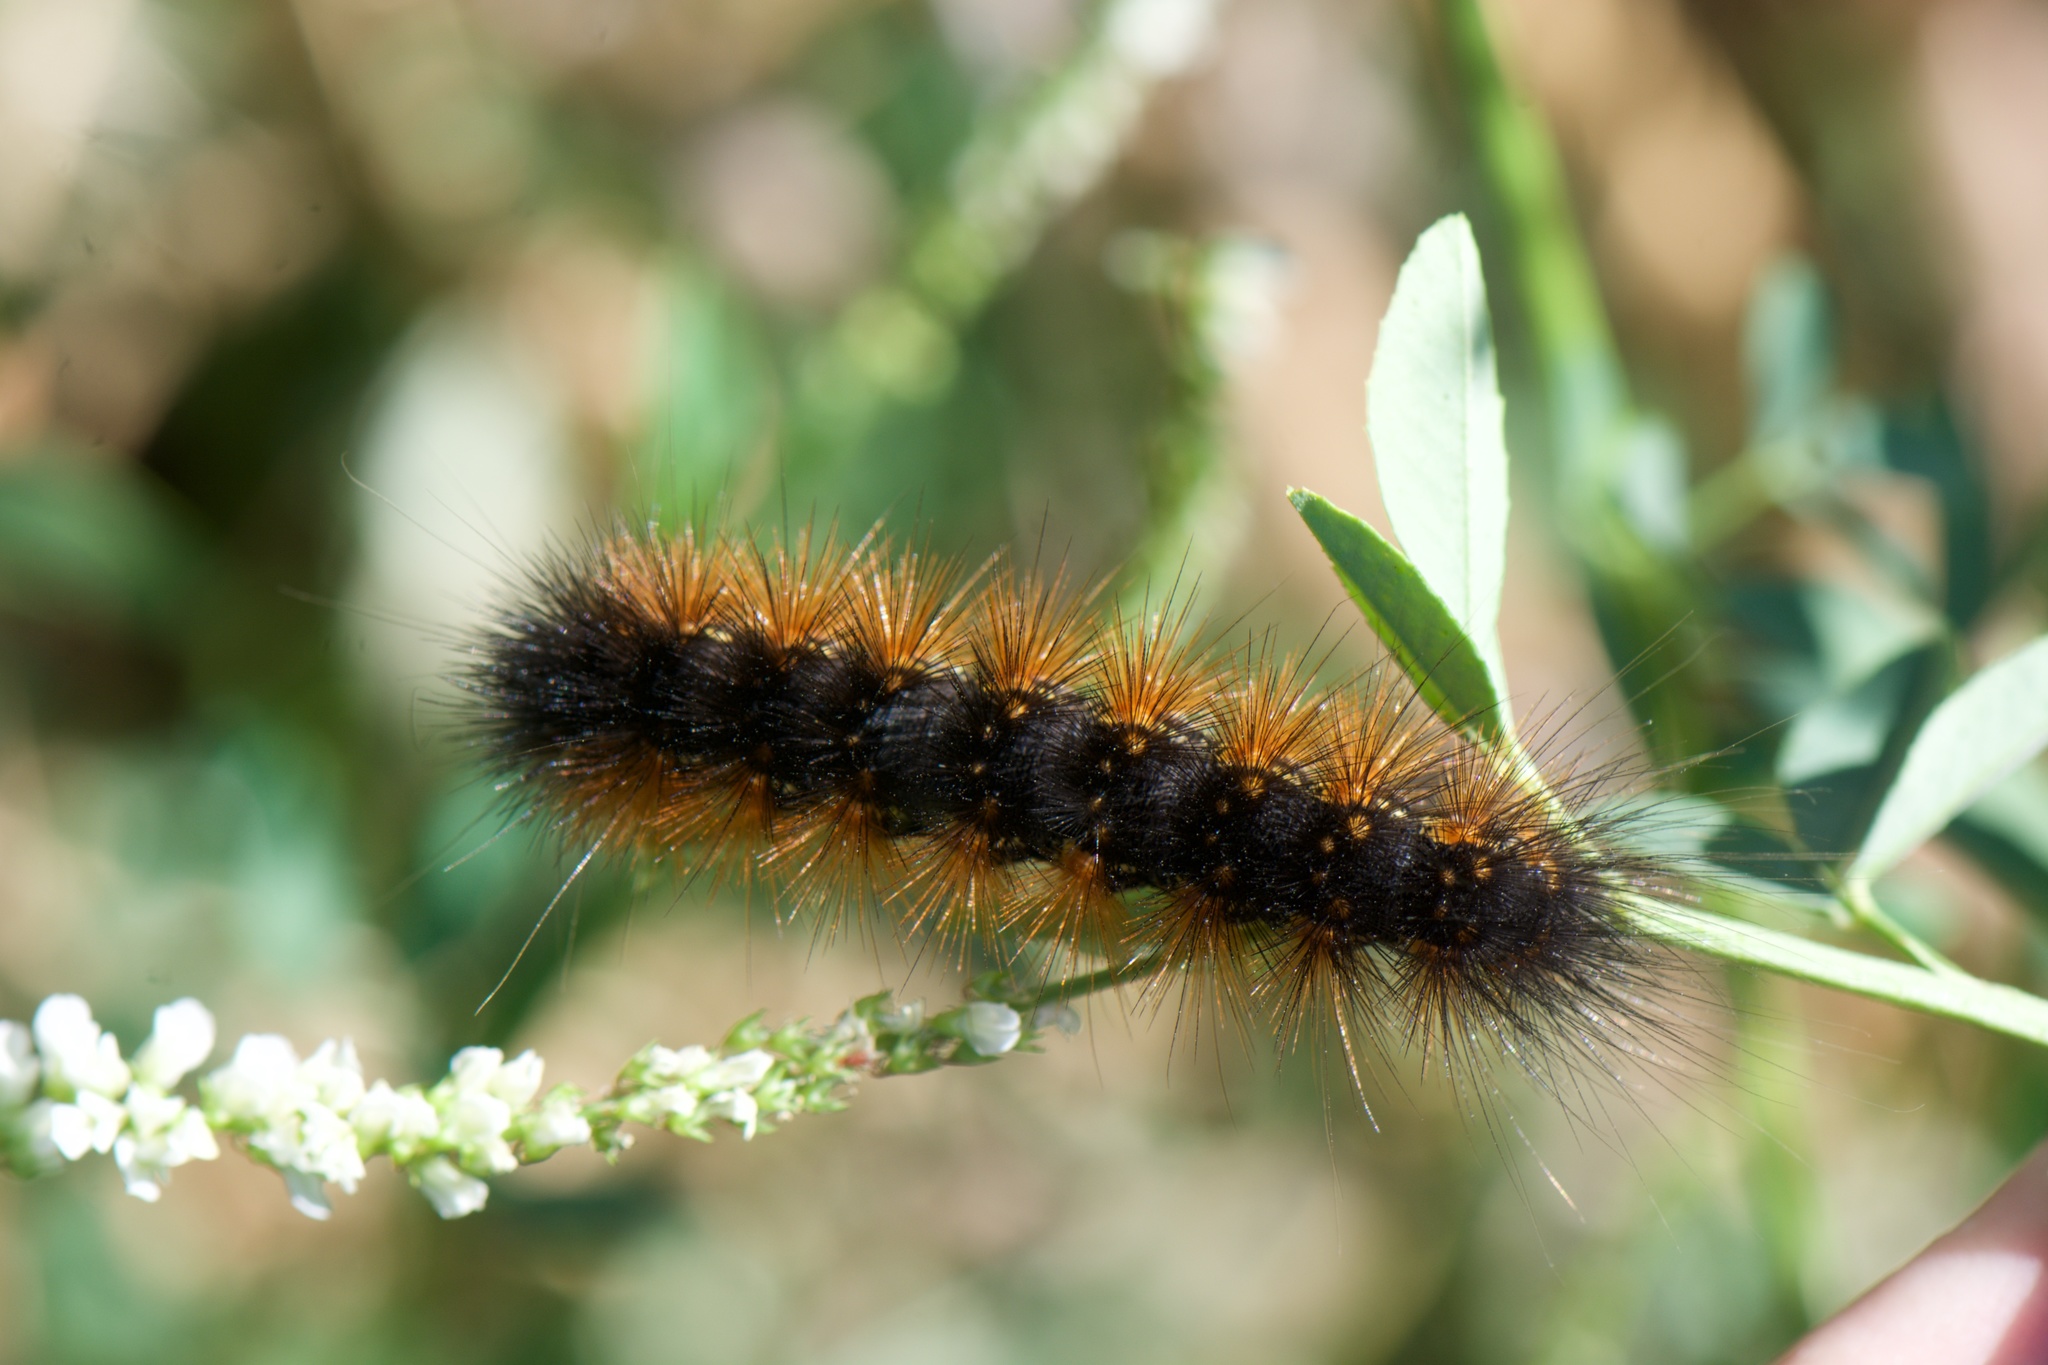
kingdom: Animalia
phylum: Arthropoda
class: Insecta
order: Lepidoptera
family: Erebidae
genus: Estigmene
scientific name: Estigmene acrea
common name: Salt marsh moth
